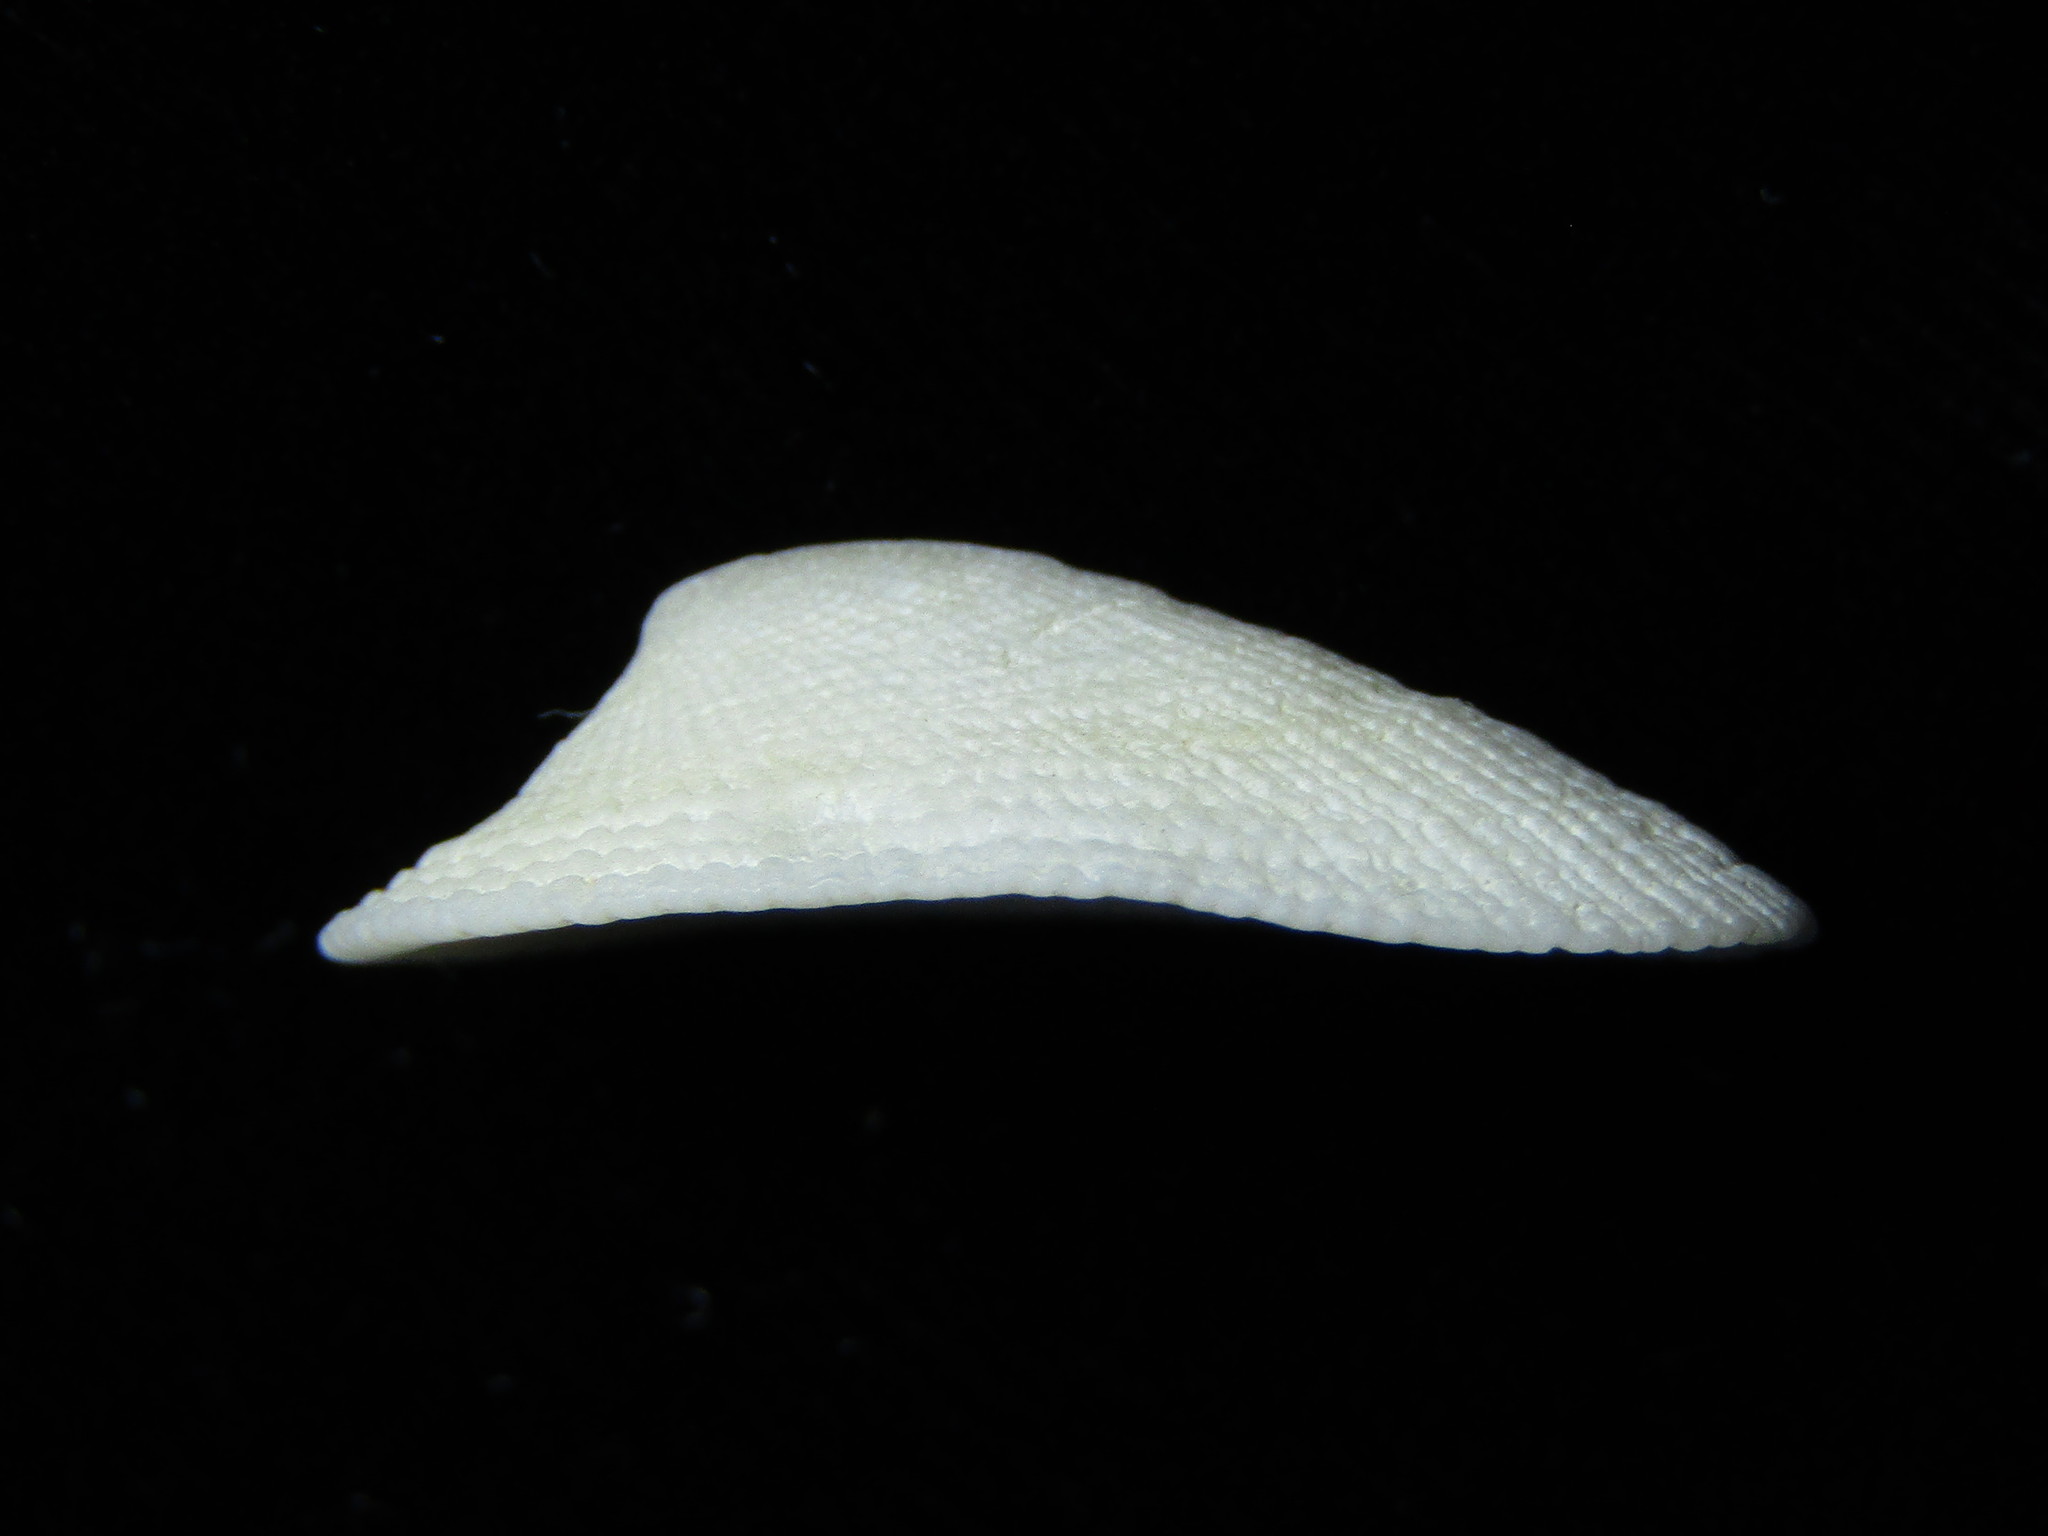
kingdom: Animalia
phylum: Mollusca
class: Gastropoda
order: Lepetellida
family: Fissurellidae
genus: Tugali
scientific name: Tugali elegans
